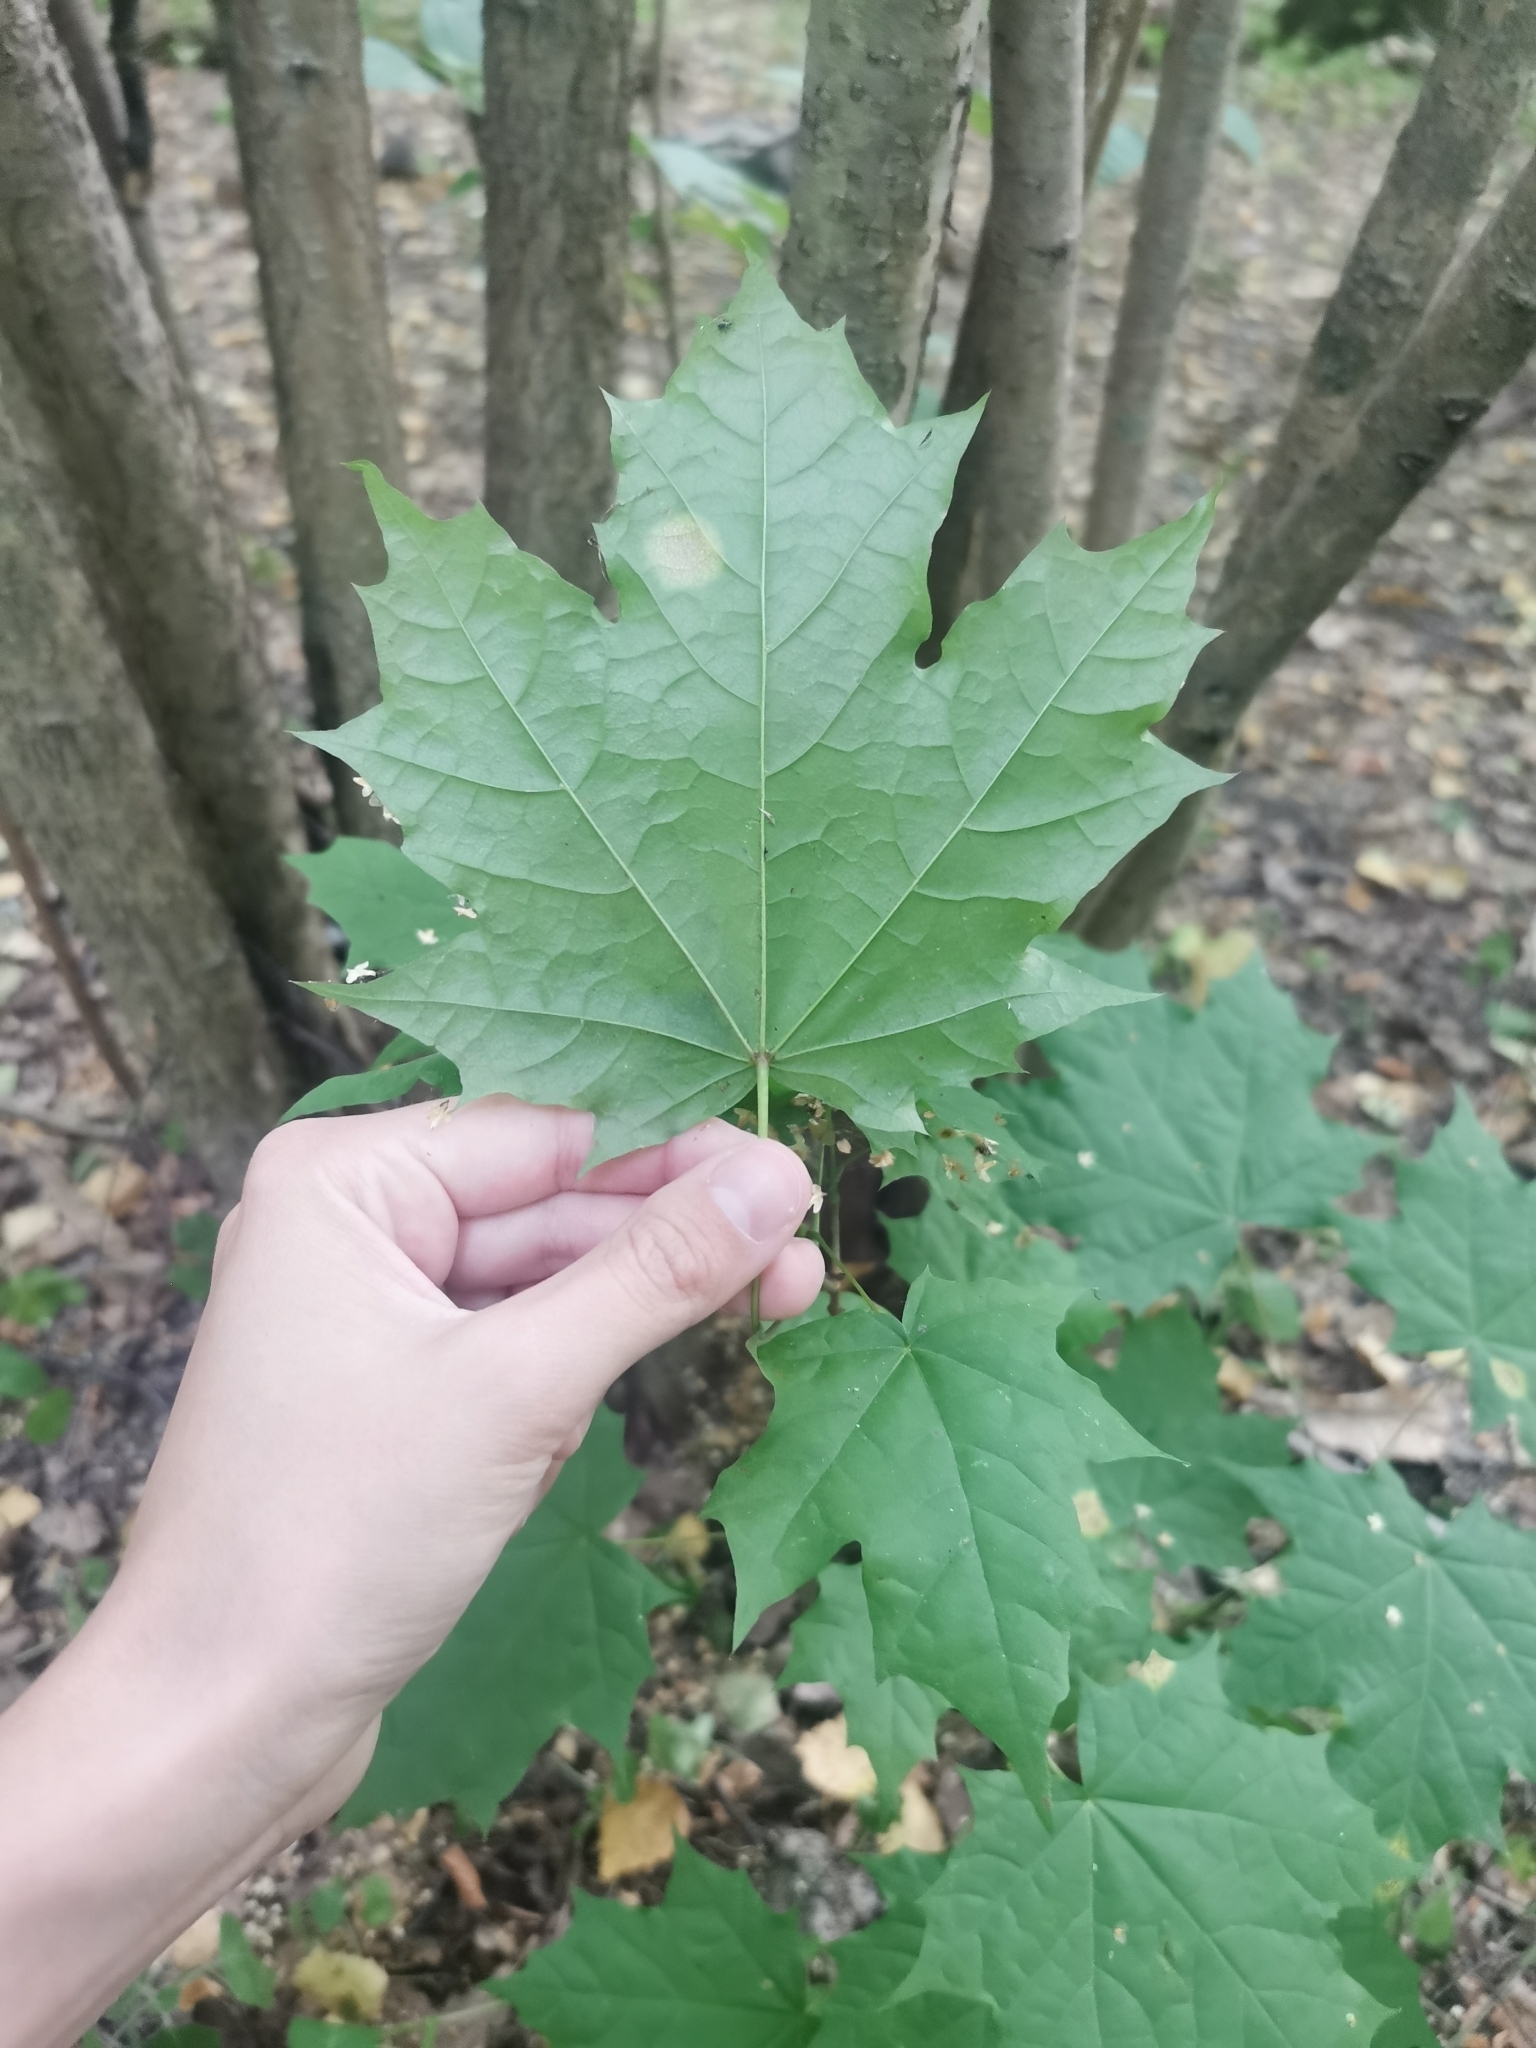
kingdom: Plantae
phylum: Tracheophyta
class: Magnoliopsida
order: Sapindales
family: Sapindaceae
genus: Acer
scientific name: Acer platanoides
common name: Norway maple
